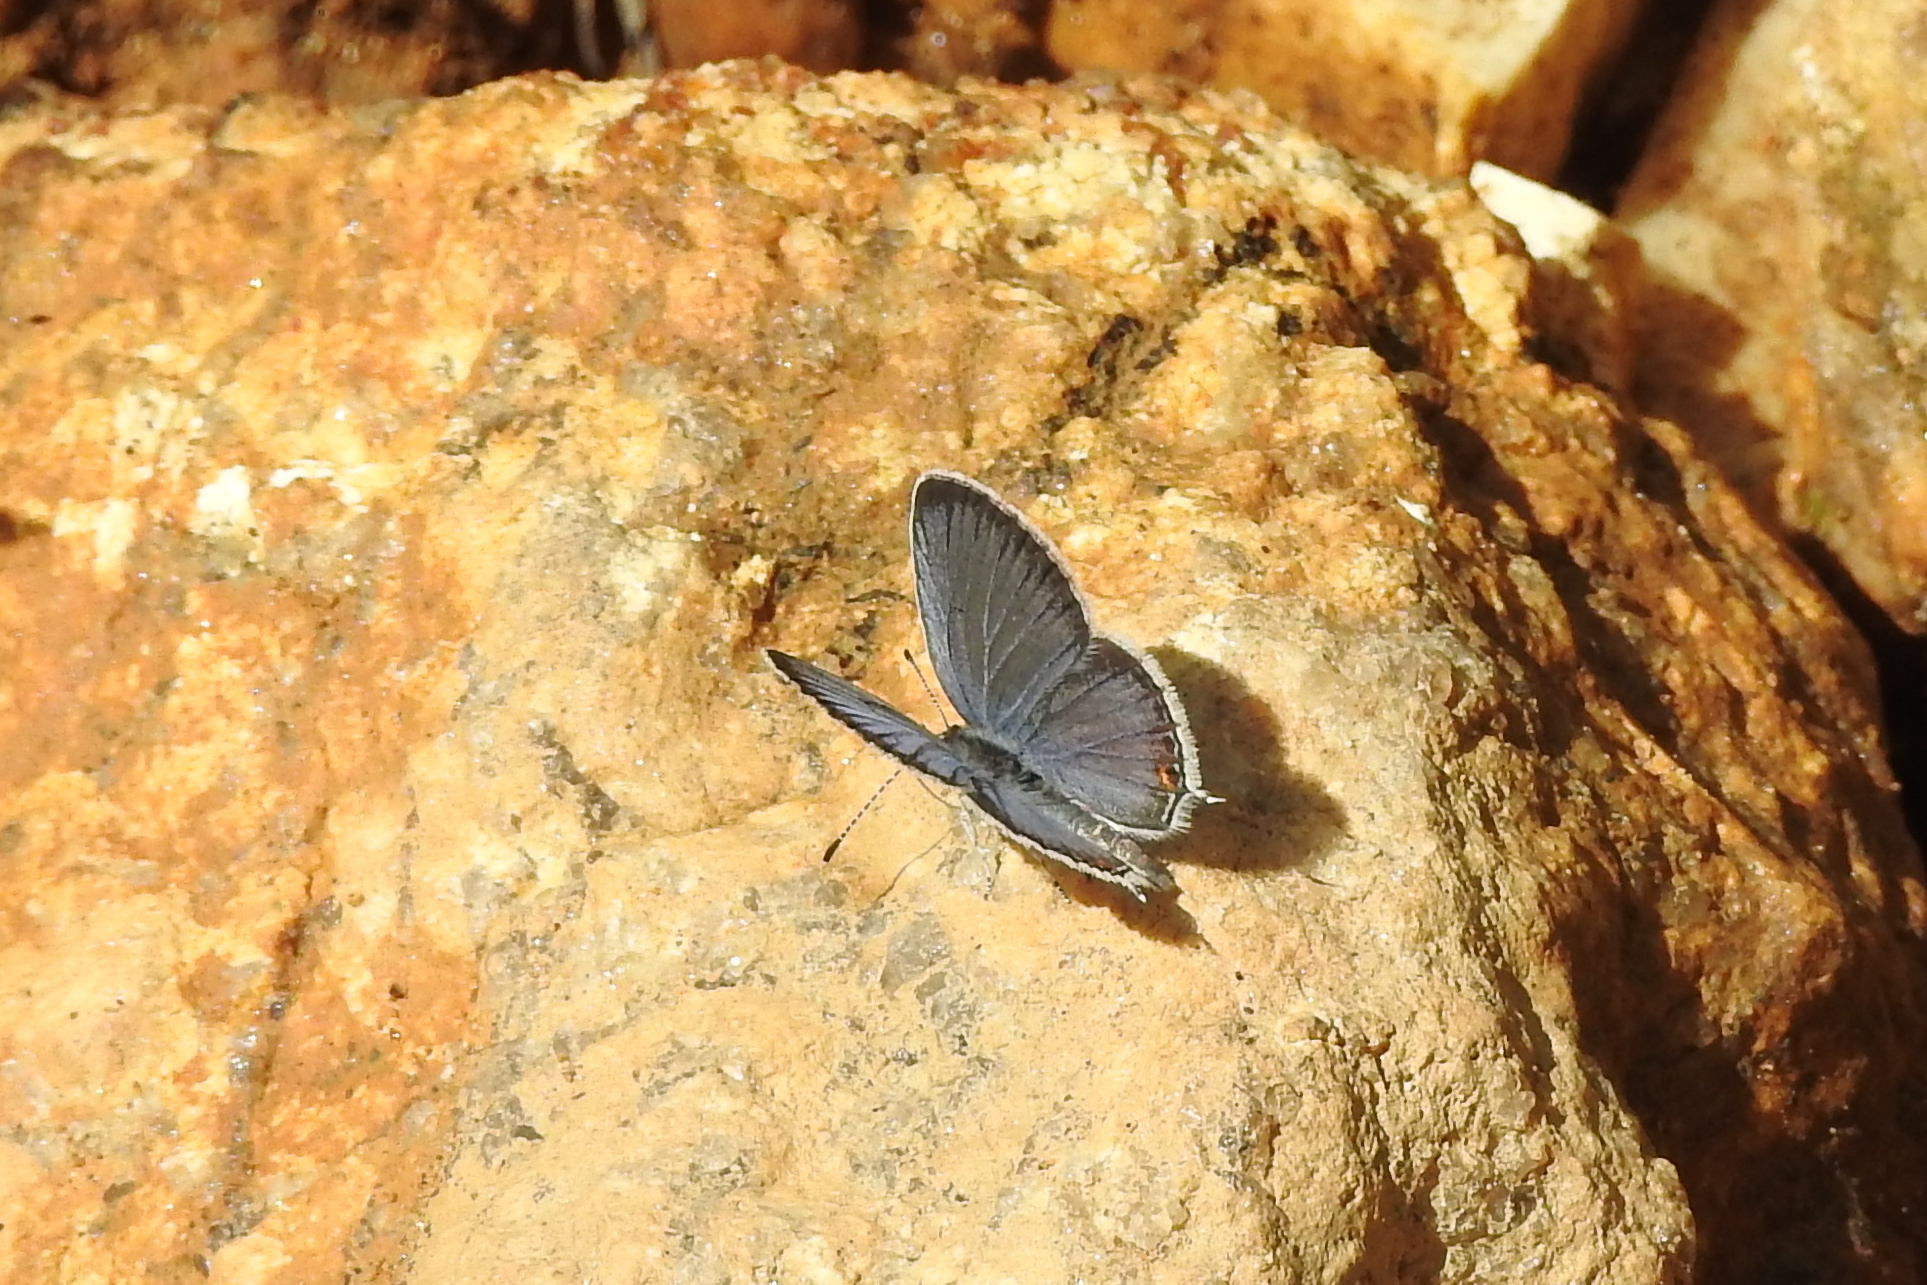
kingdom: Animalia
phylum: Arthropoda
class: Insecta
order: Lepidoptera
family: Lycaenidae
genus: Elkalyce
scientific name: Elkalyce comyntas
